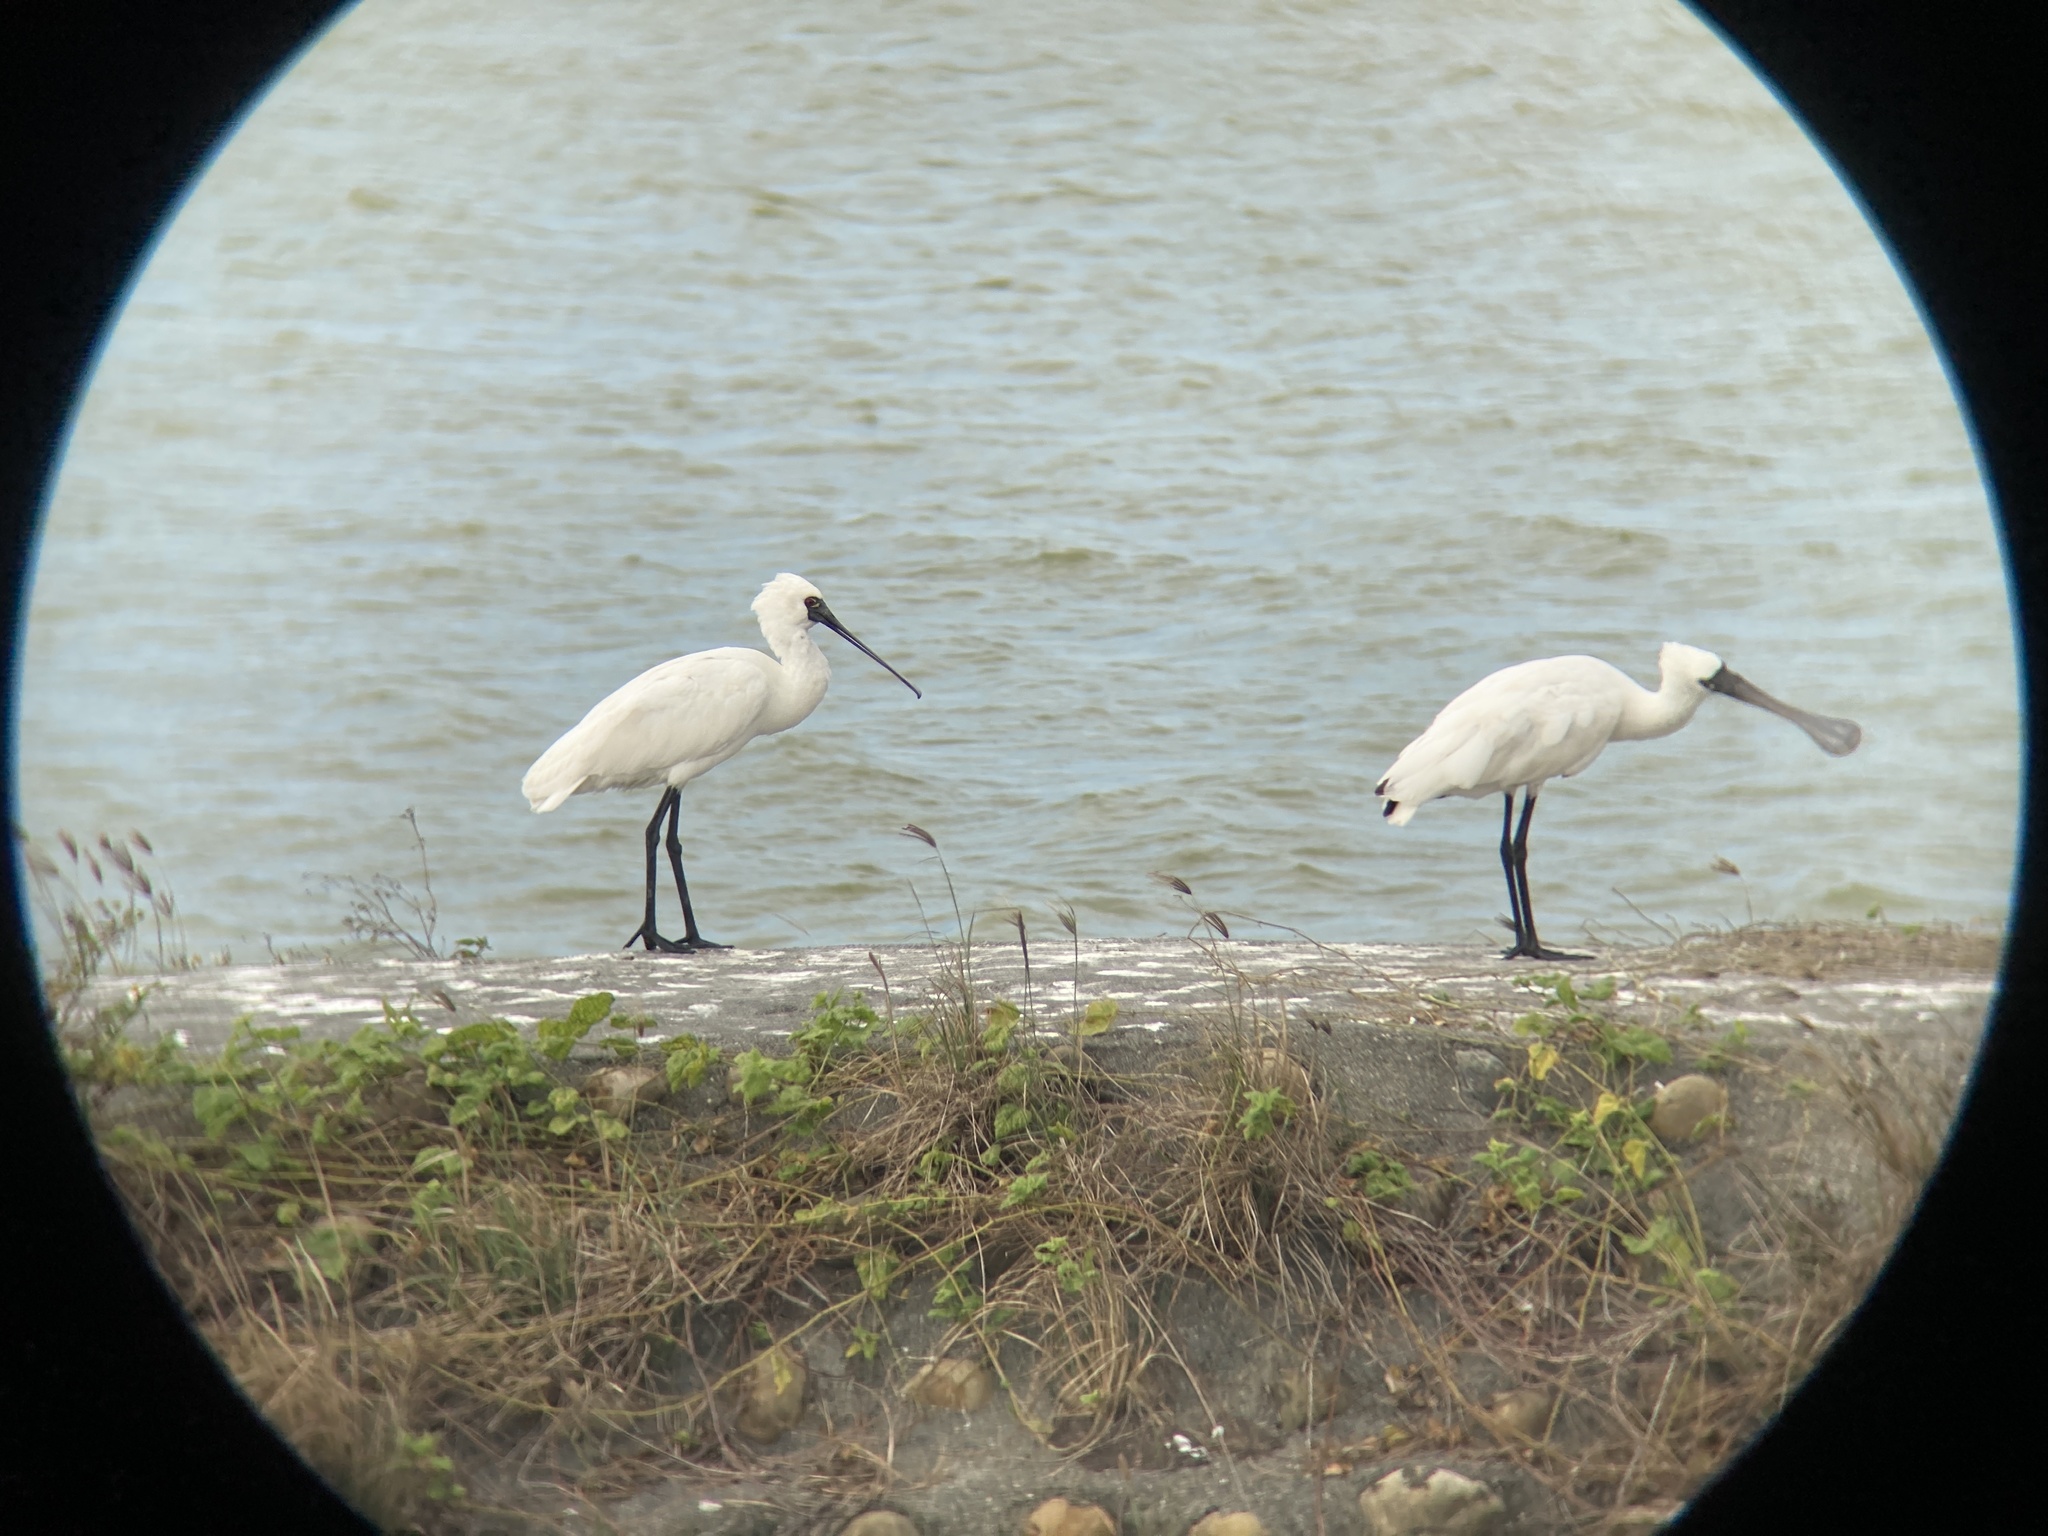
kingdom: Animalia
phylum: Chordata
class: Aves
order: Pelecaniformes
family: Threskiornithidae
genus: Platalea
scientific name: Platalea minor
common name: Black-faced spoonbill
